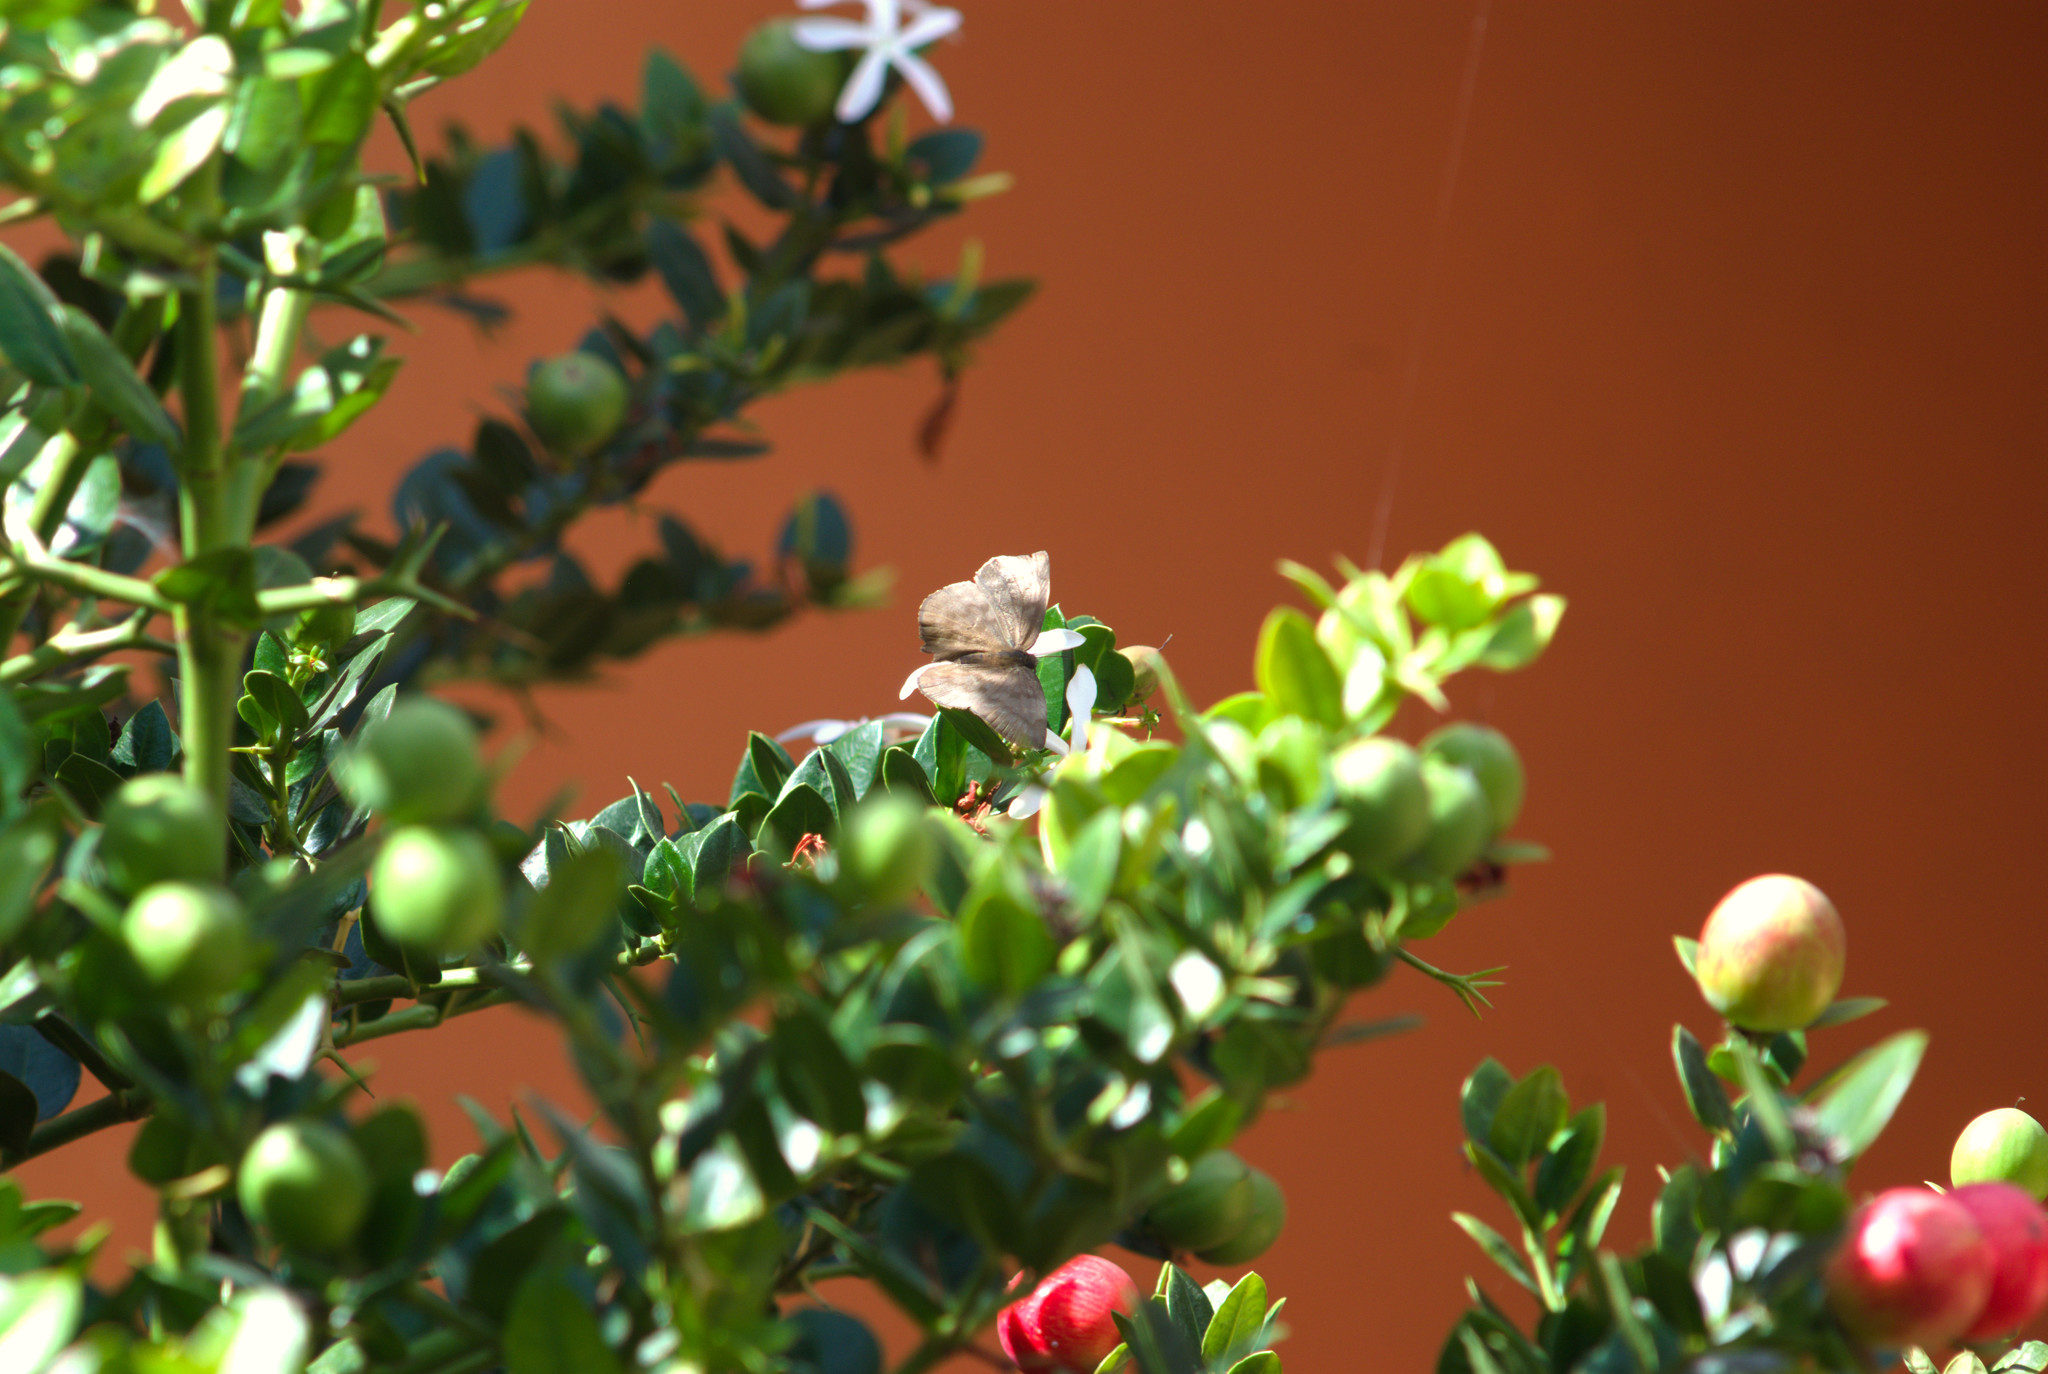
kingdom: Animalia
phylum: Arthropoda
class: Insecta
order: Lepidoptera
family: Hesperiidae
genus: Achlyodes
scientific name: Achlyodes pallida
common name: Pale sicklewing
